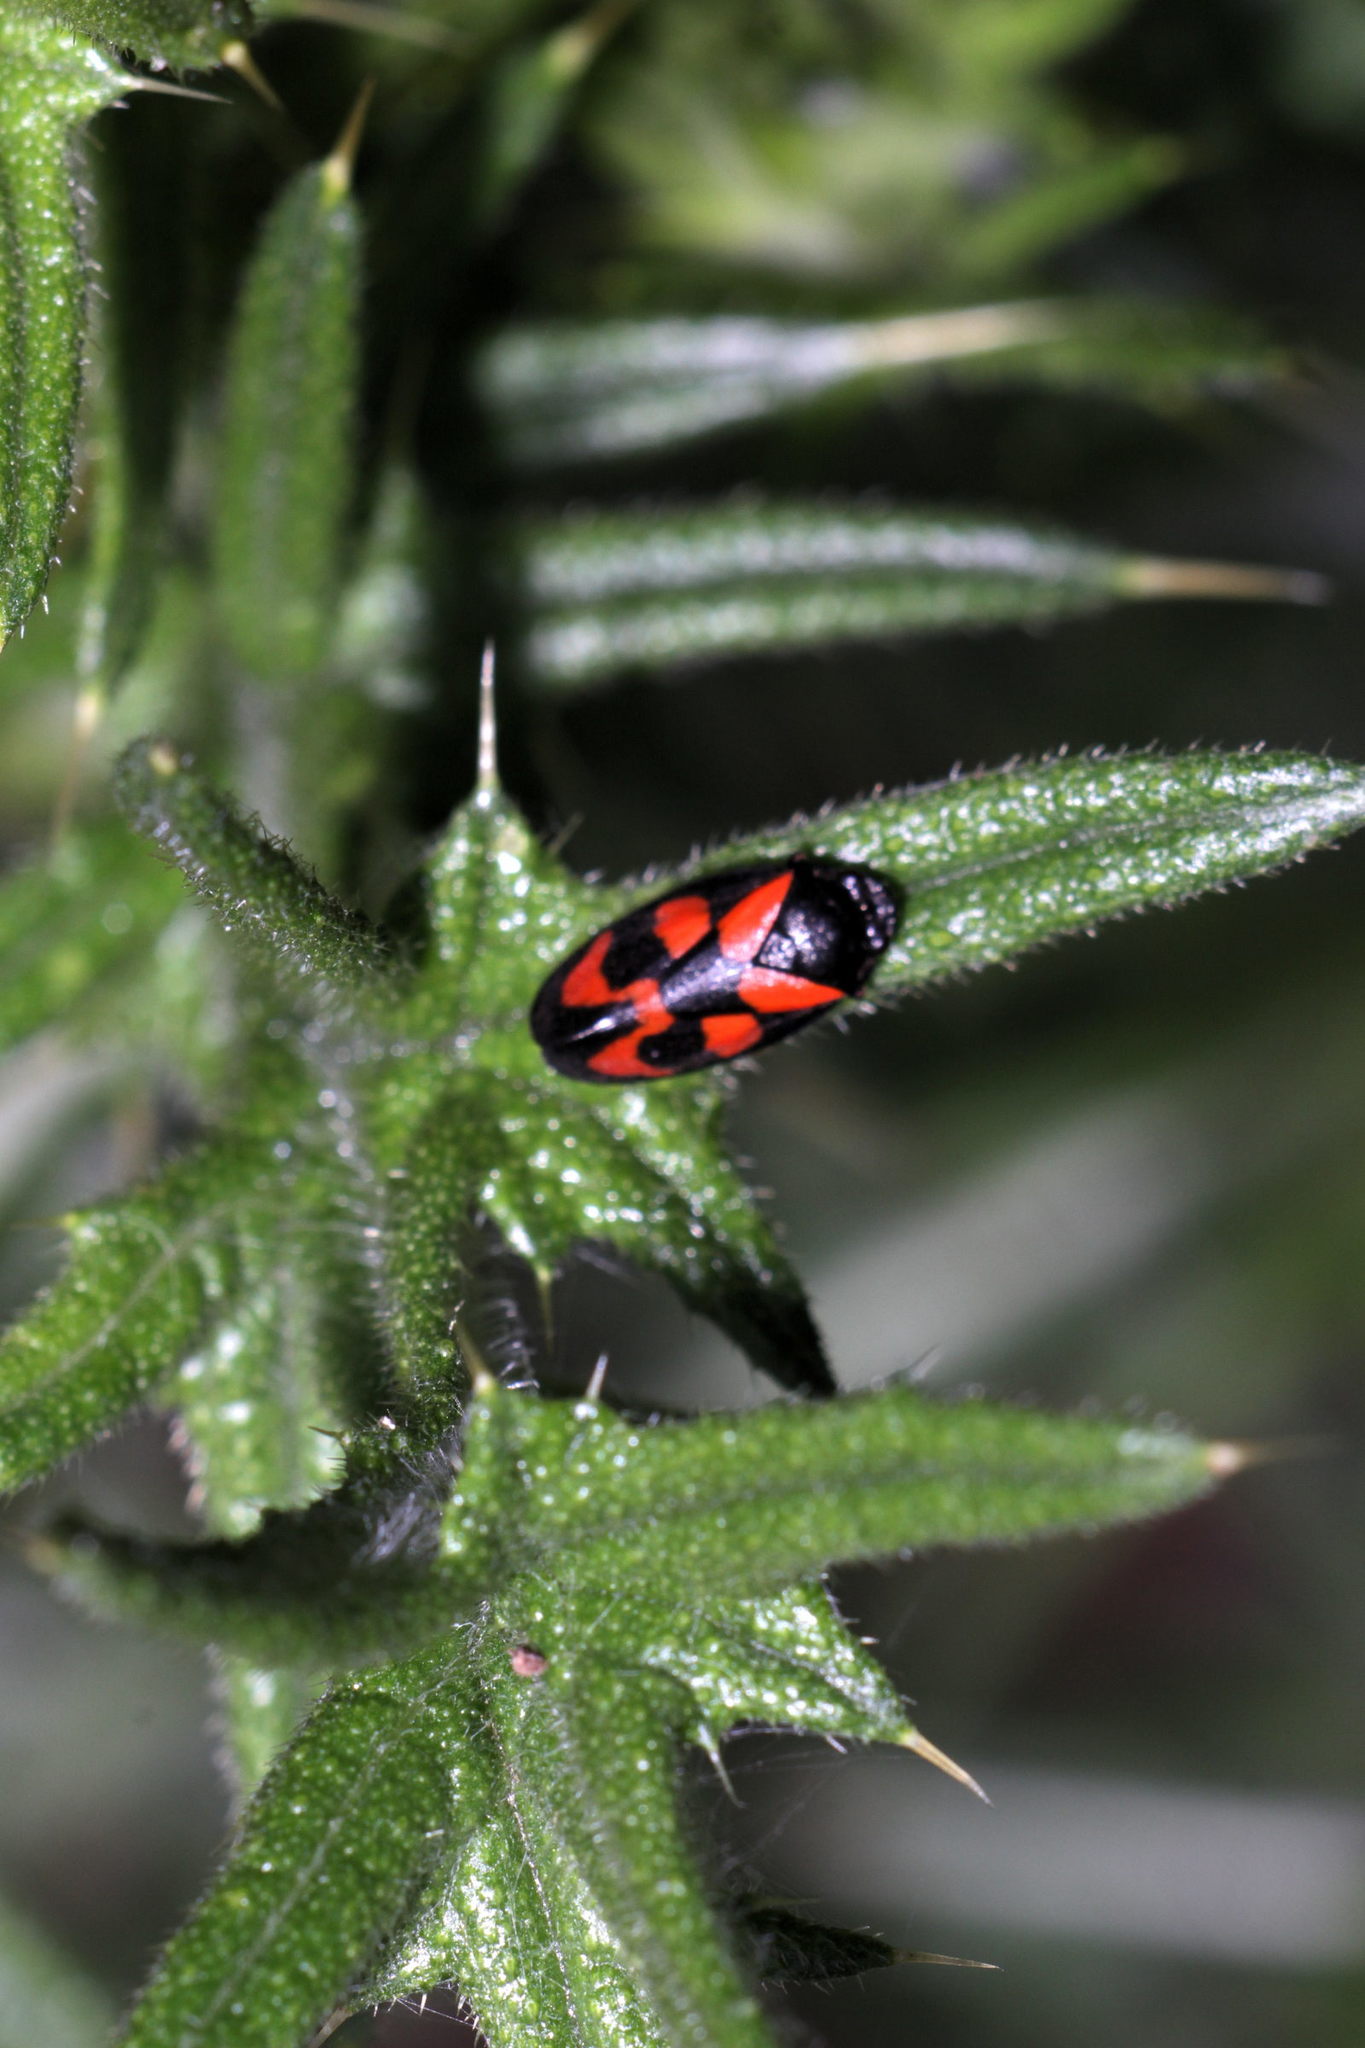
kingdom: Animalia
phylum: Arthropoda
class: Insecta
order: Hemiptera
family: Cercopidae
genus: Cercopis
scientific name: Cercopis vulnerata
